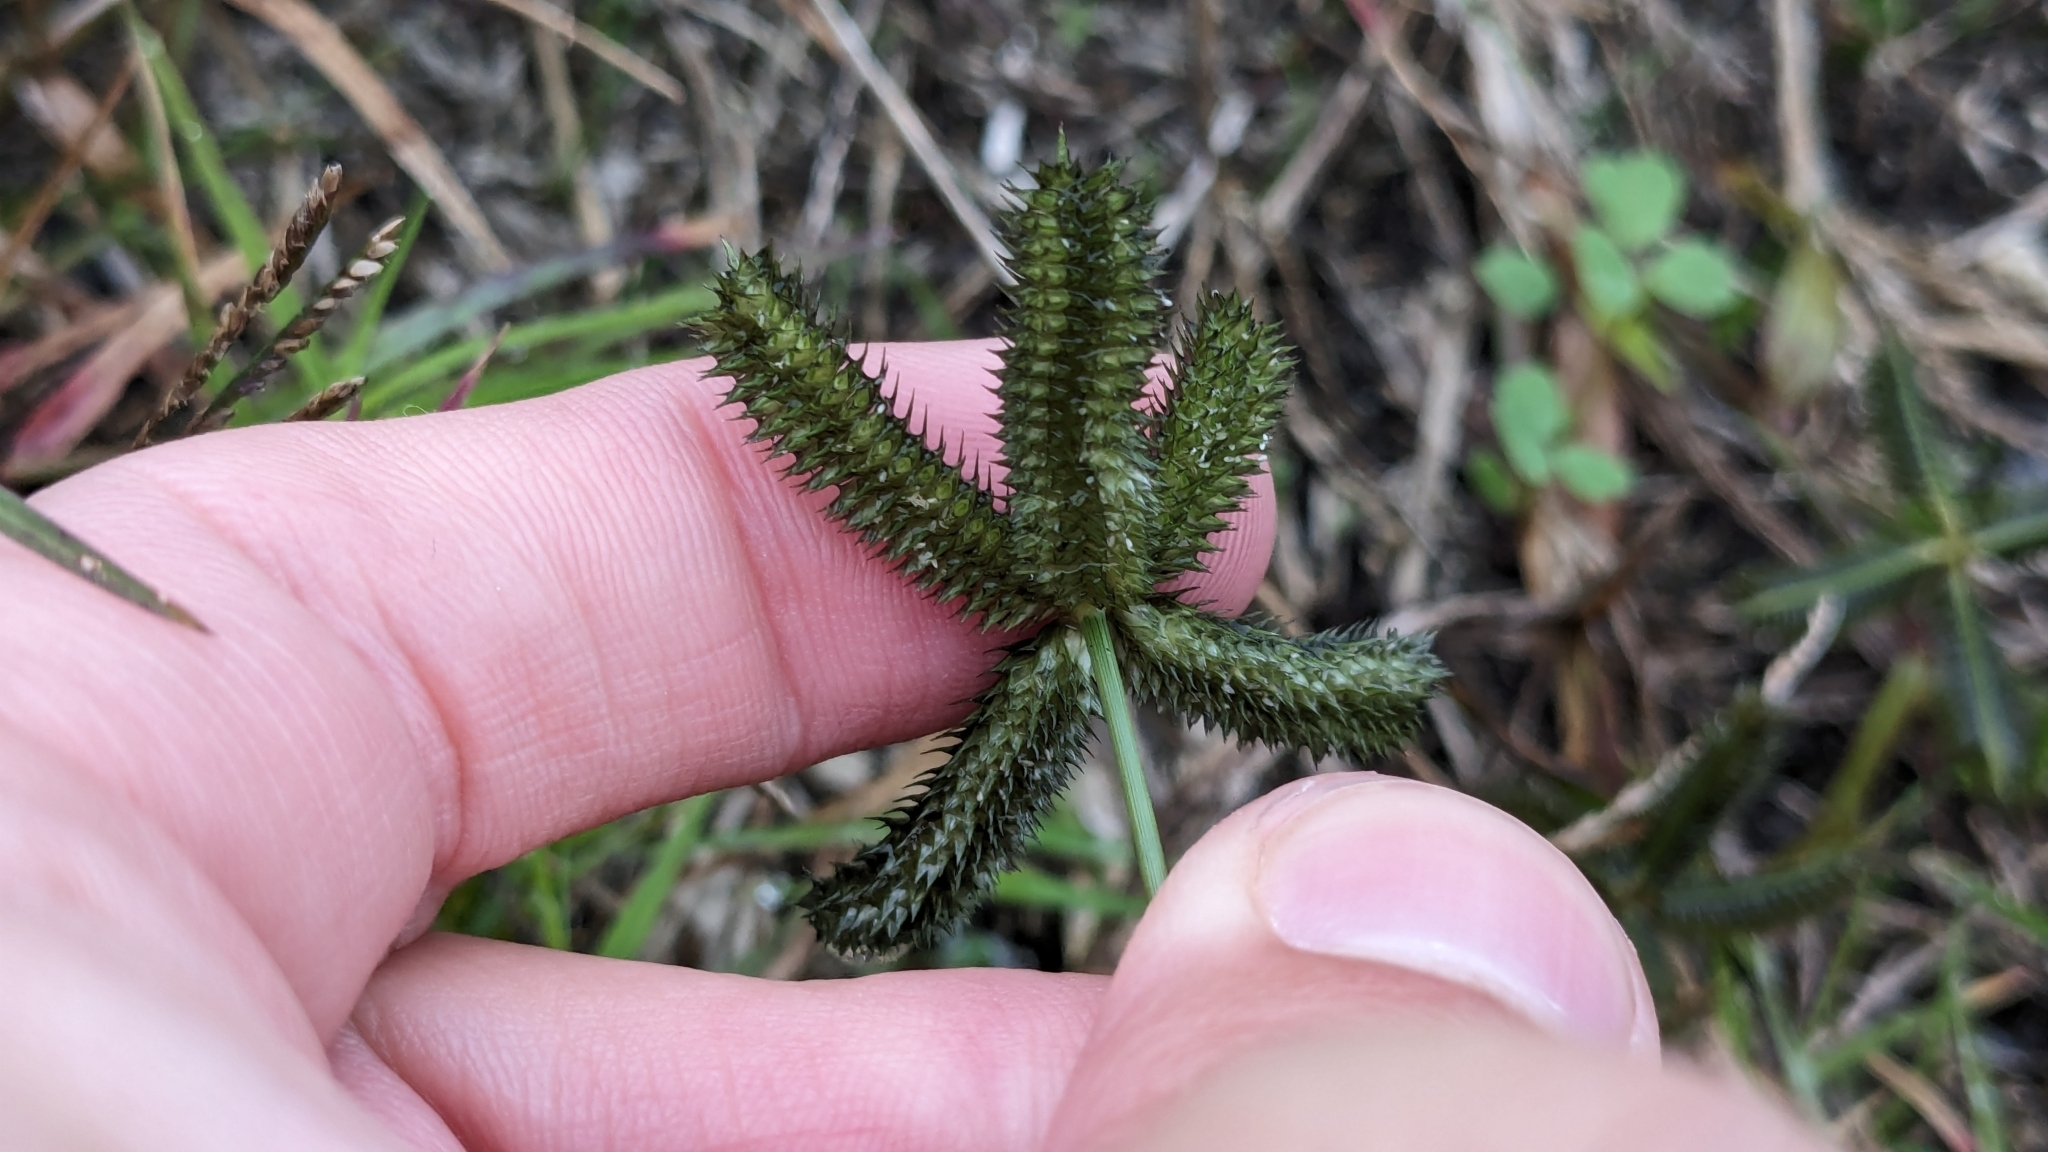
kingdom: Plantae
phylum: Tracheophyta
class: Liliopsida
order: Poales
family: Poaceae
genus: Dactyloctenium
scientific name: Dactyloctenium aegyptium
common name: Egyptian grass
